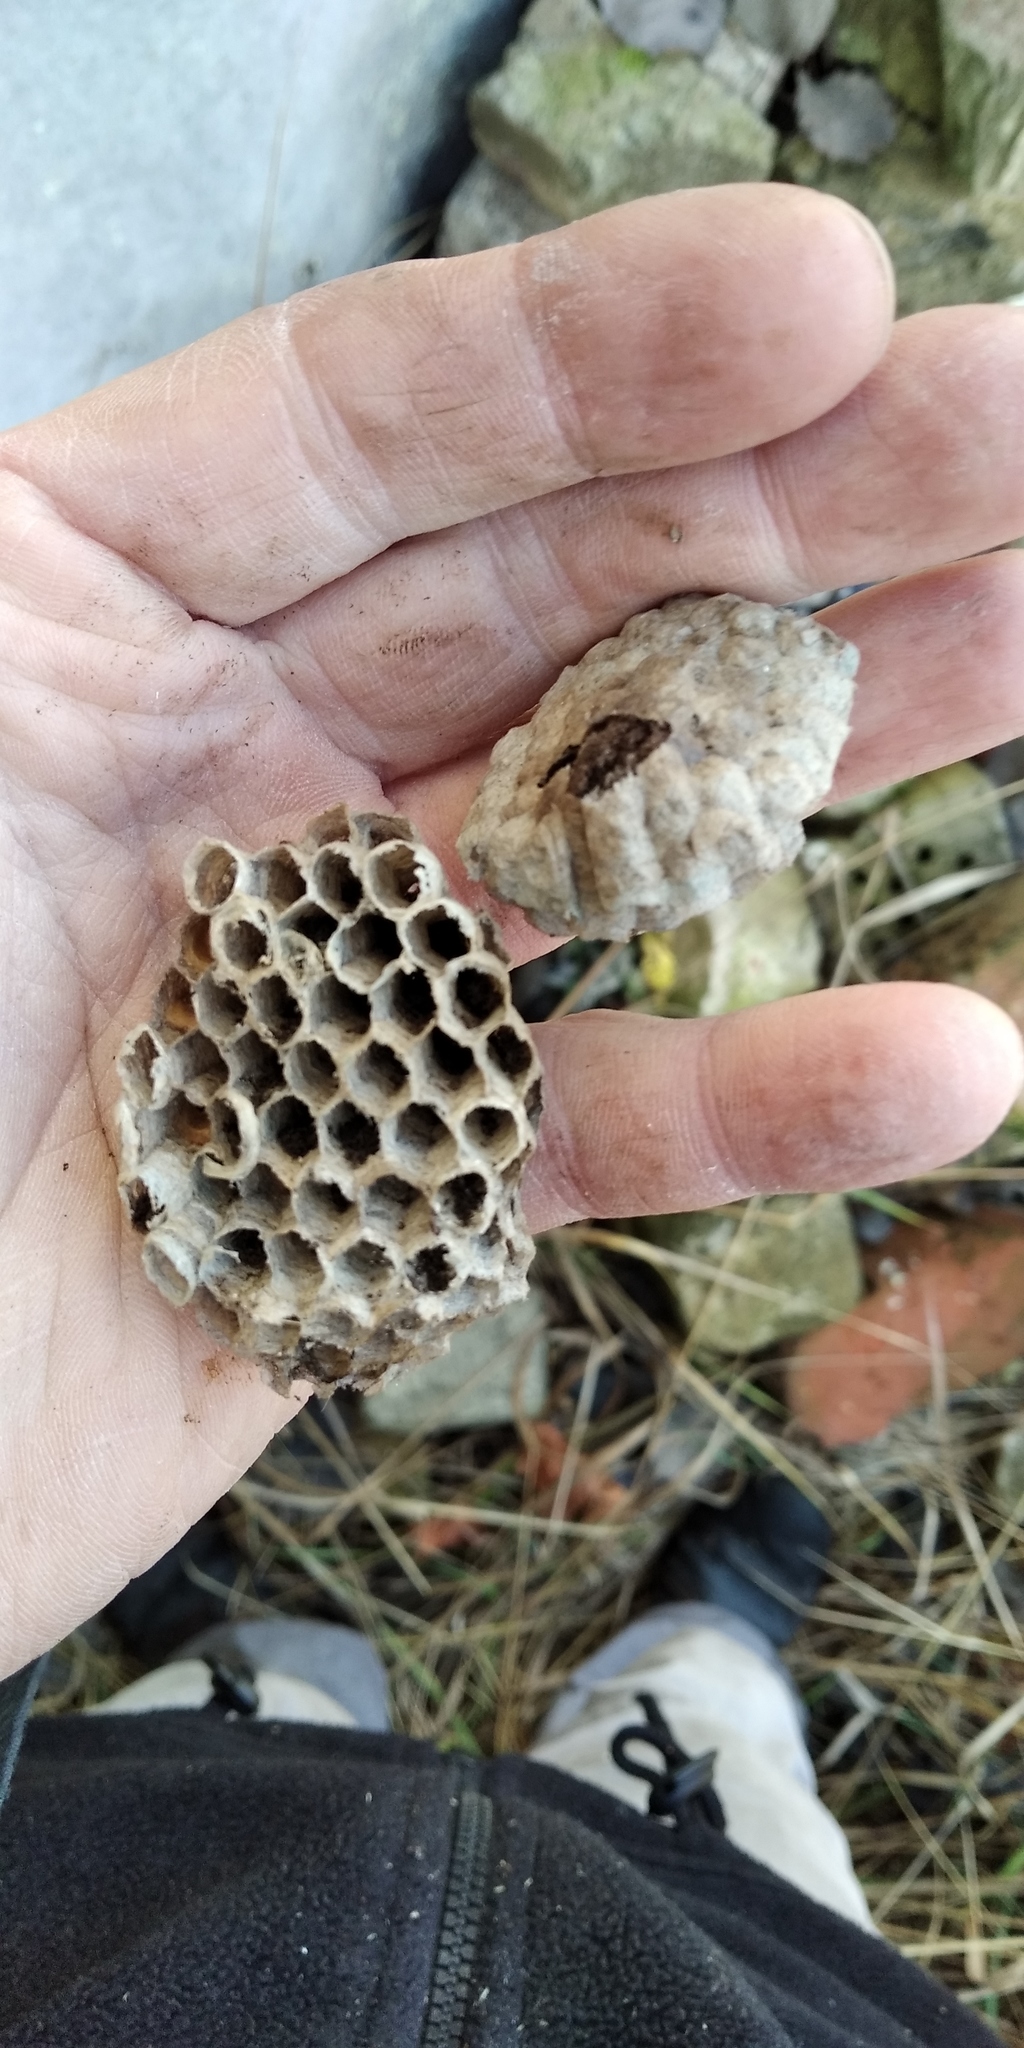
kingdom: Animalia
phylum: Arthropoda
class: Insecta
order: Hymenoptera
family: Eumenidae
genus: Polistes
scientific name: Polistes nimpha
